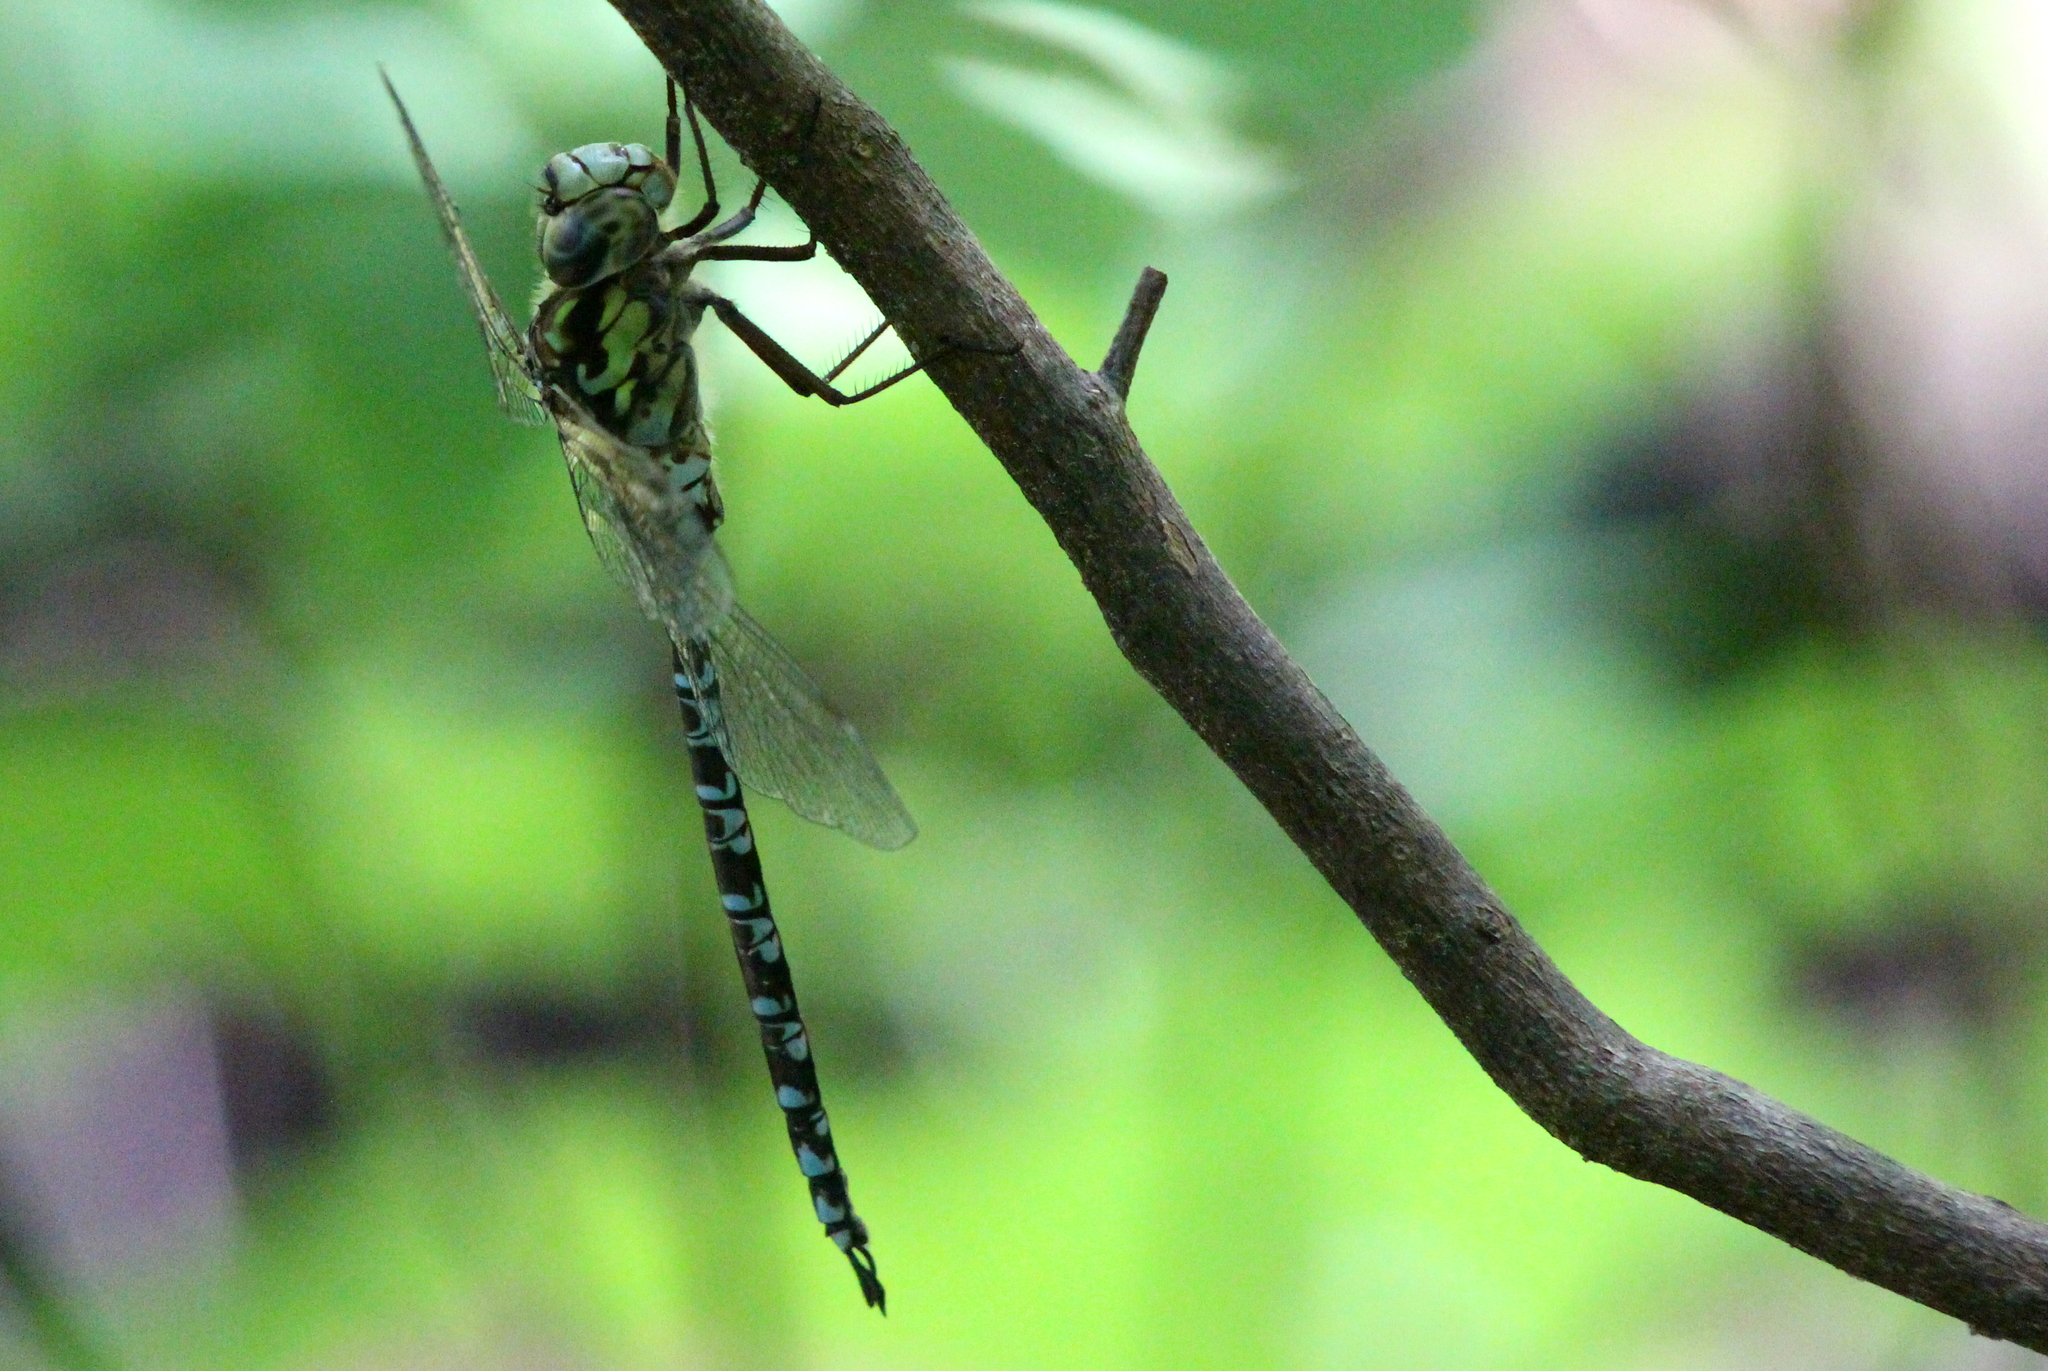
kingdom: Animalia
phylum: Arthropoda
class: Insecta
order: Odonata
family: Aeshnidae
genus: Aeshna
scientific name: Aeshna clepsydra
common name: Mottled darner
